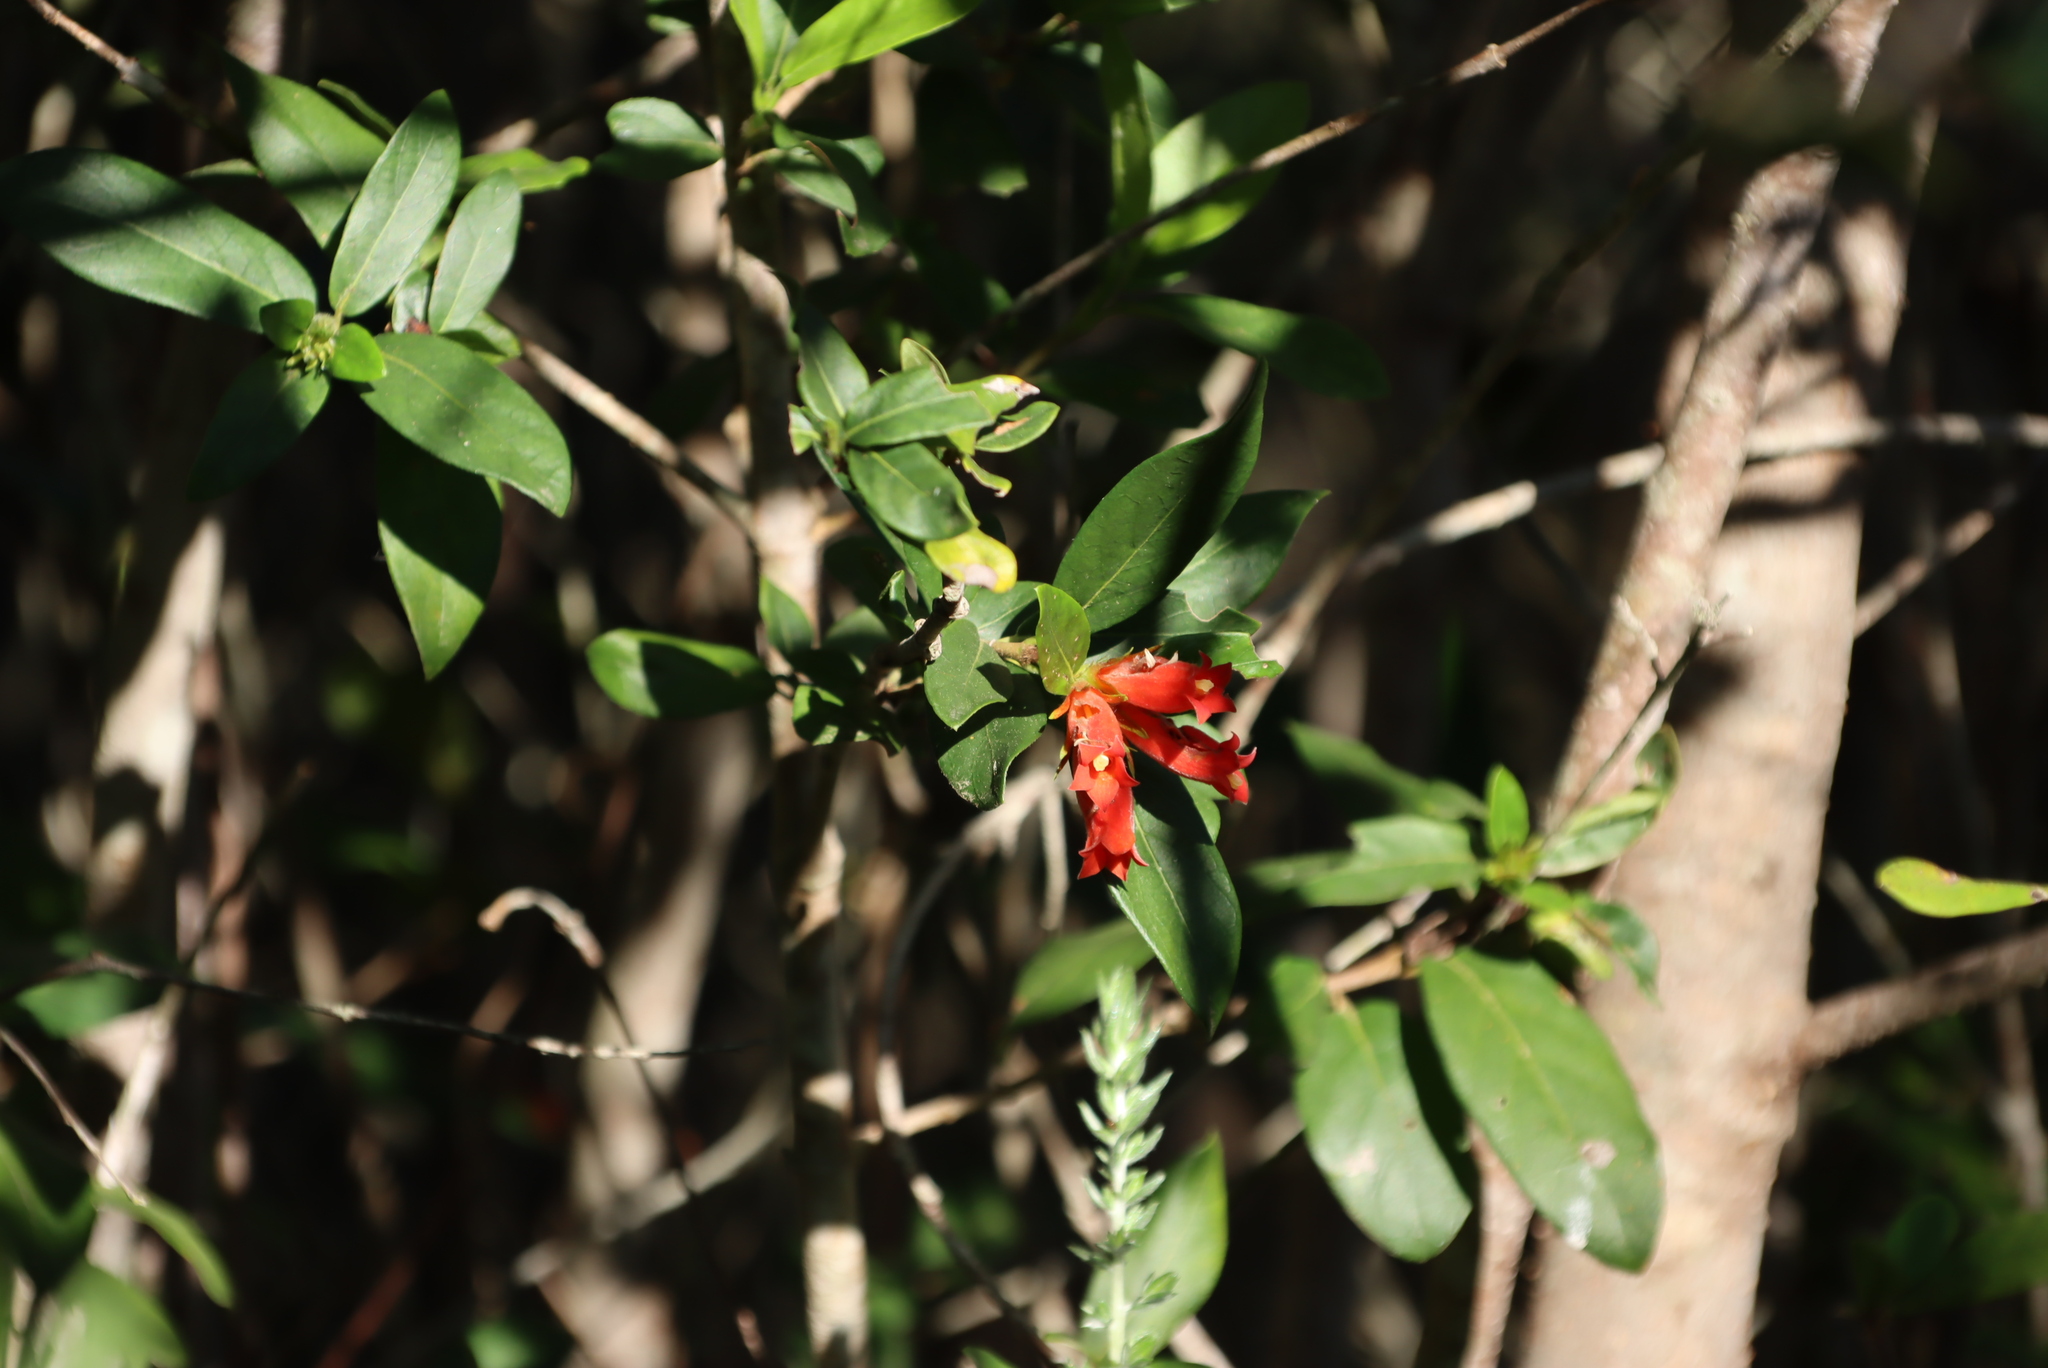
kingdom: Plantae
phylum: Tracheophyta
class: Magnoliopsida
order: Gentianales
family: Rubiaceae
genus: Burchellia
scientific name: Burchellia bubalina
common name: Wild pomegranate
